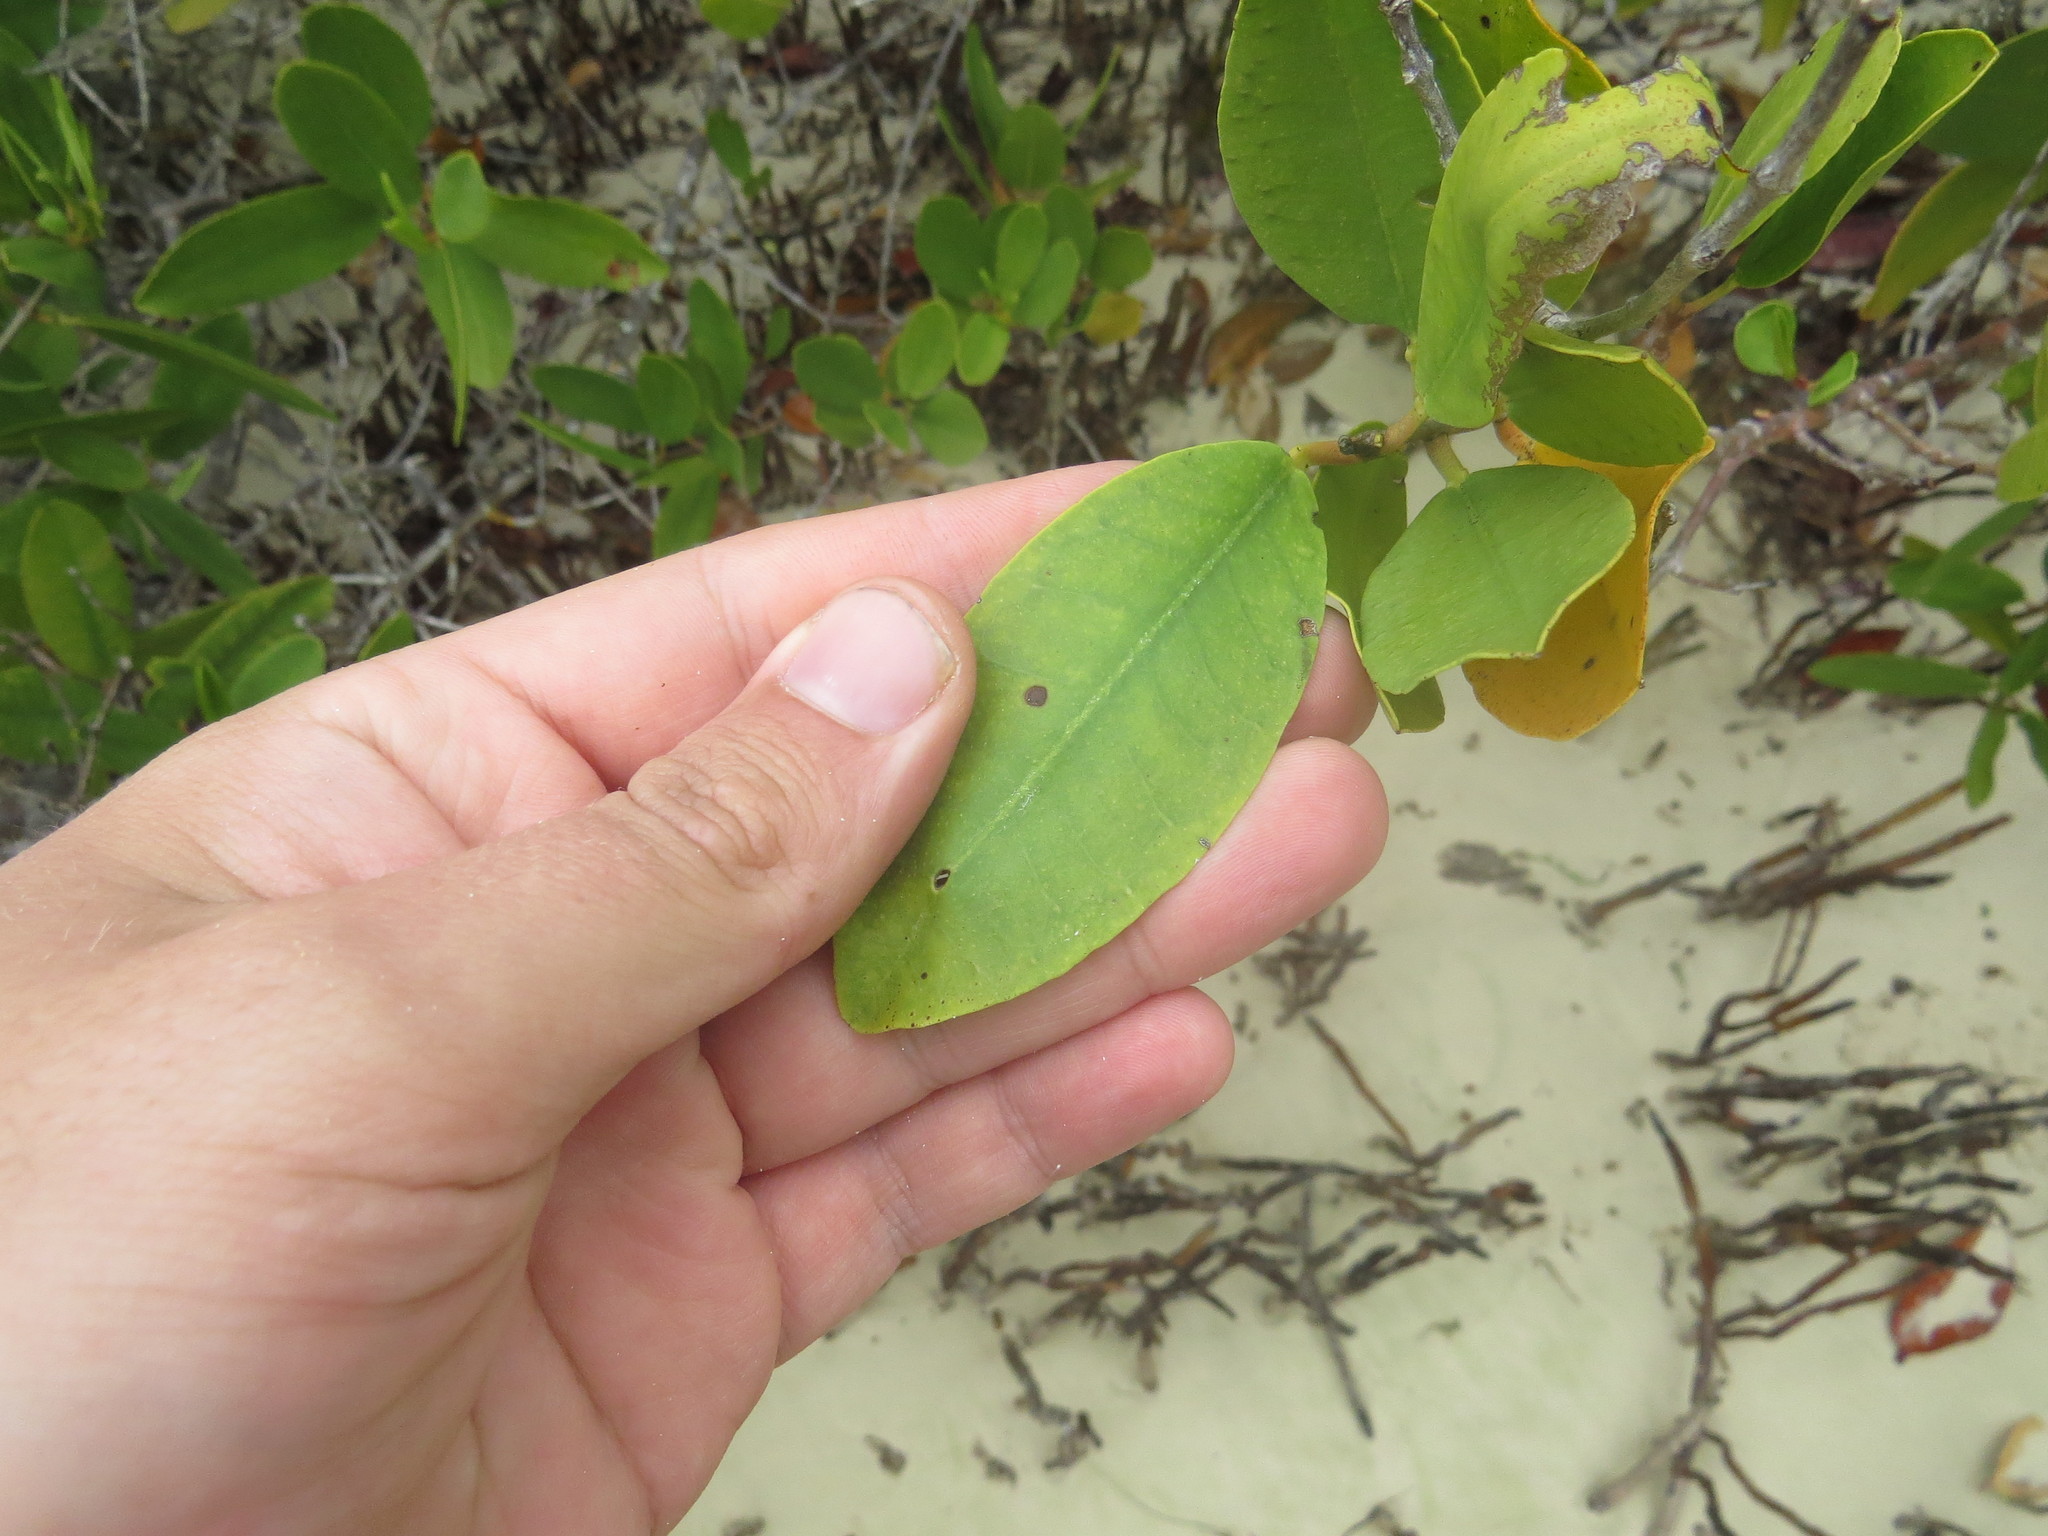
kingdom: Plantae
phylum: Tracheophyta
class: Magnoliopsida
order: Myrtales
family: Combretaceae
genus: Laguncularia
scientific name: Laguncularia racemosa
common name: White mangrove
